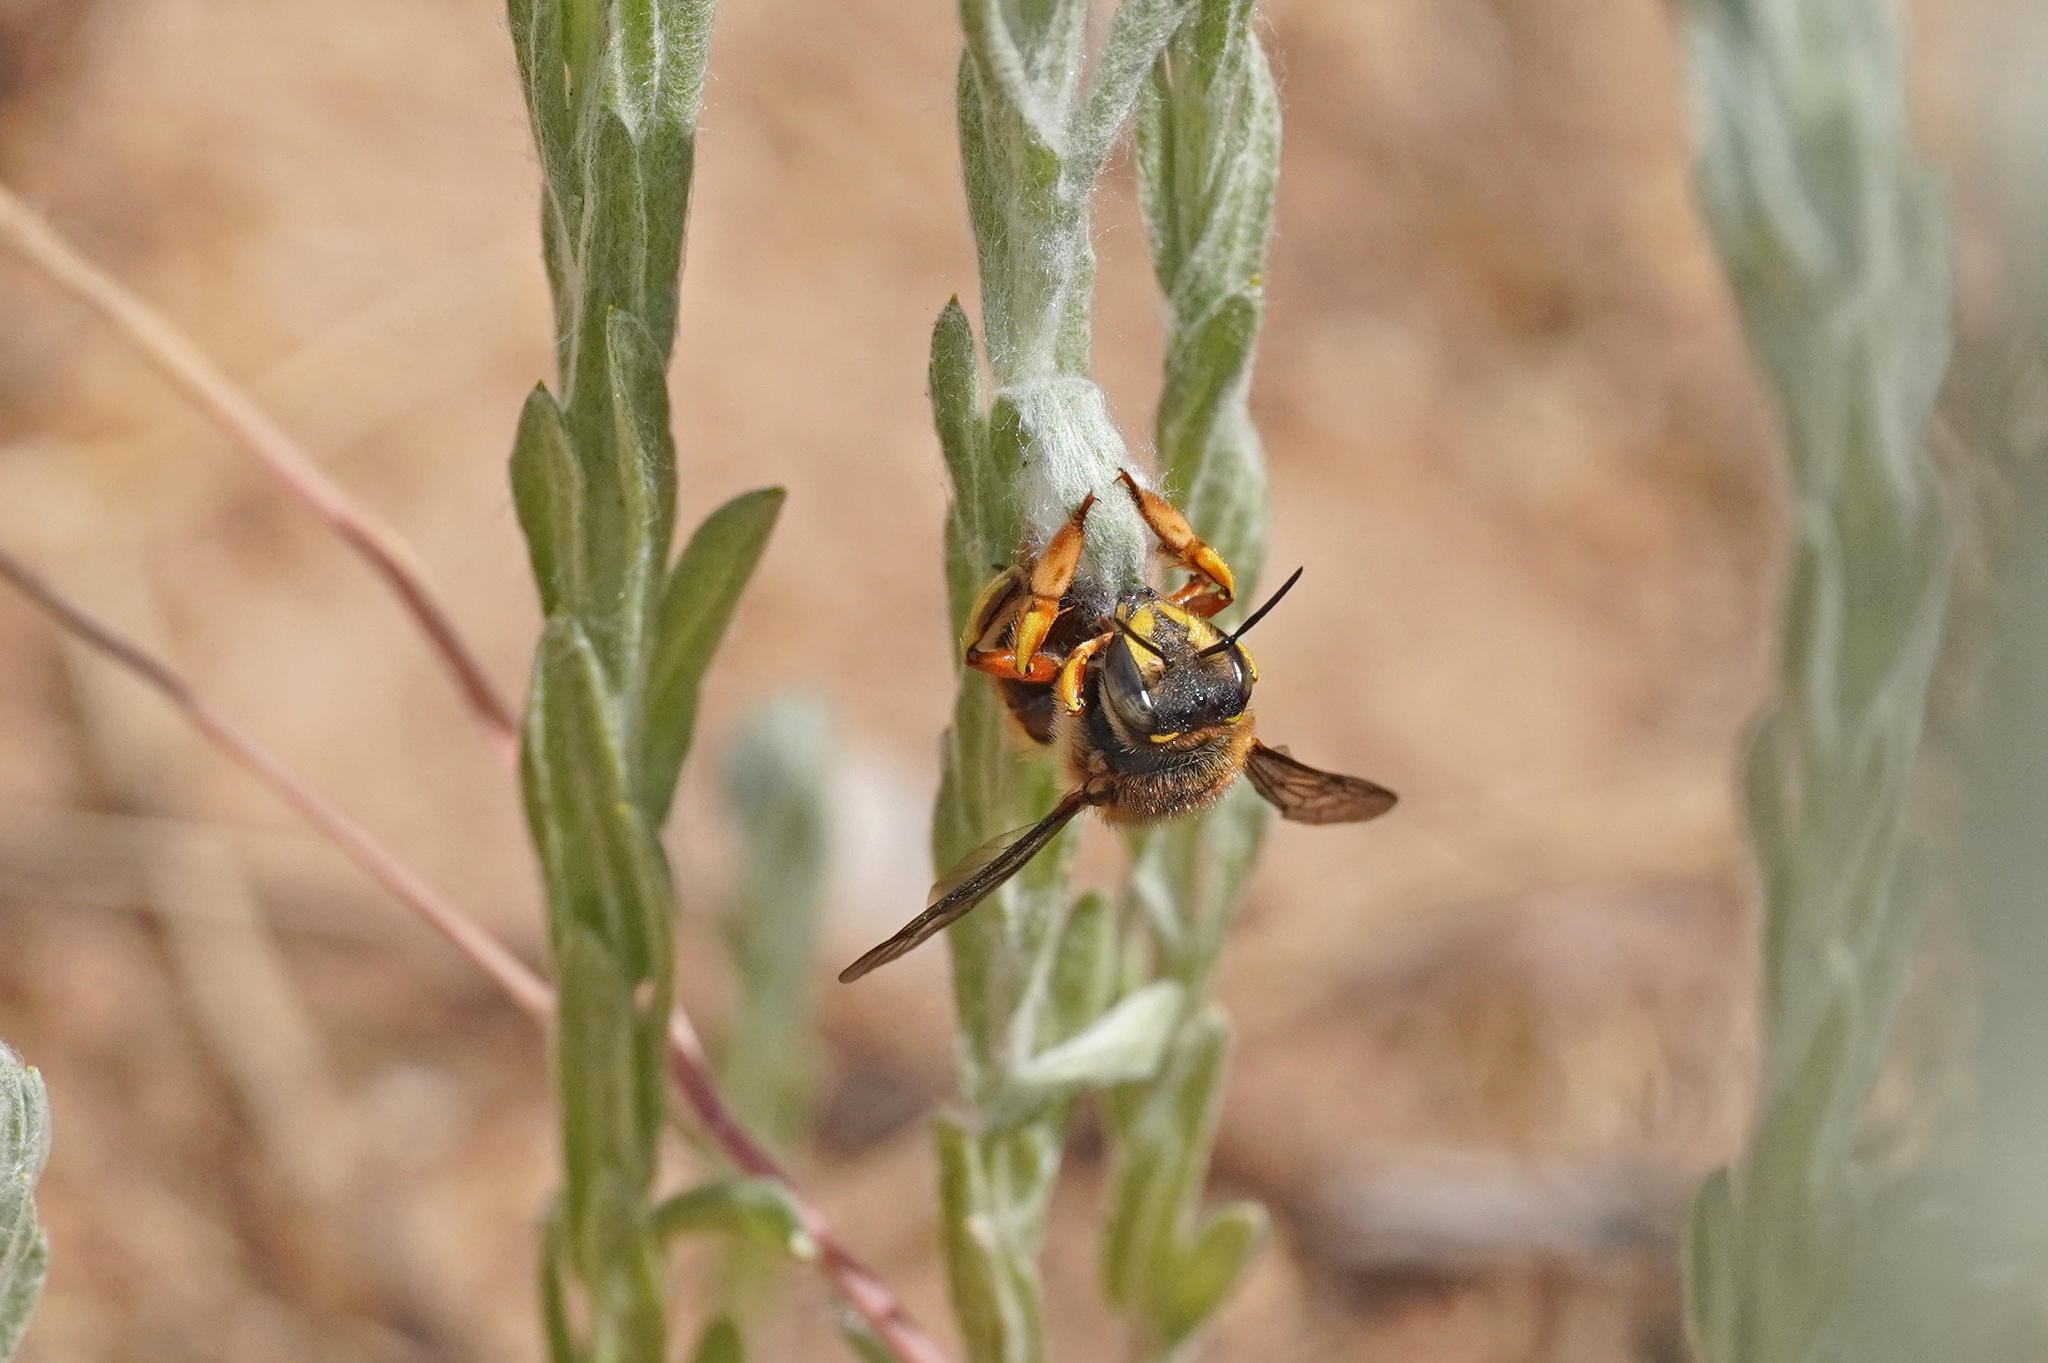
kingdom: Animalia
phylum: Arthropoda
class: Insecta
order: Hymenoptera
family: Megachilidae
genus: Anthidium
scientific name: Anthidium manicatum
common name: Wool carder bee
